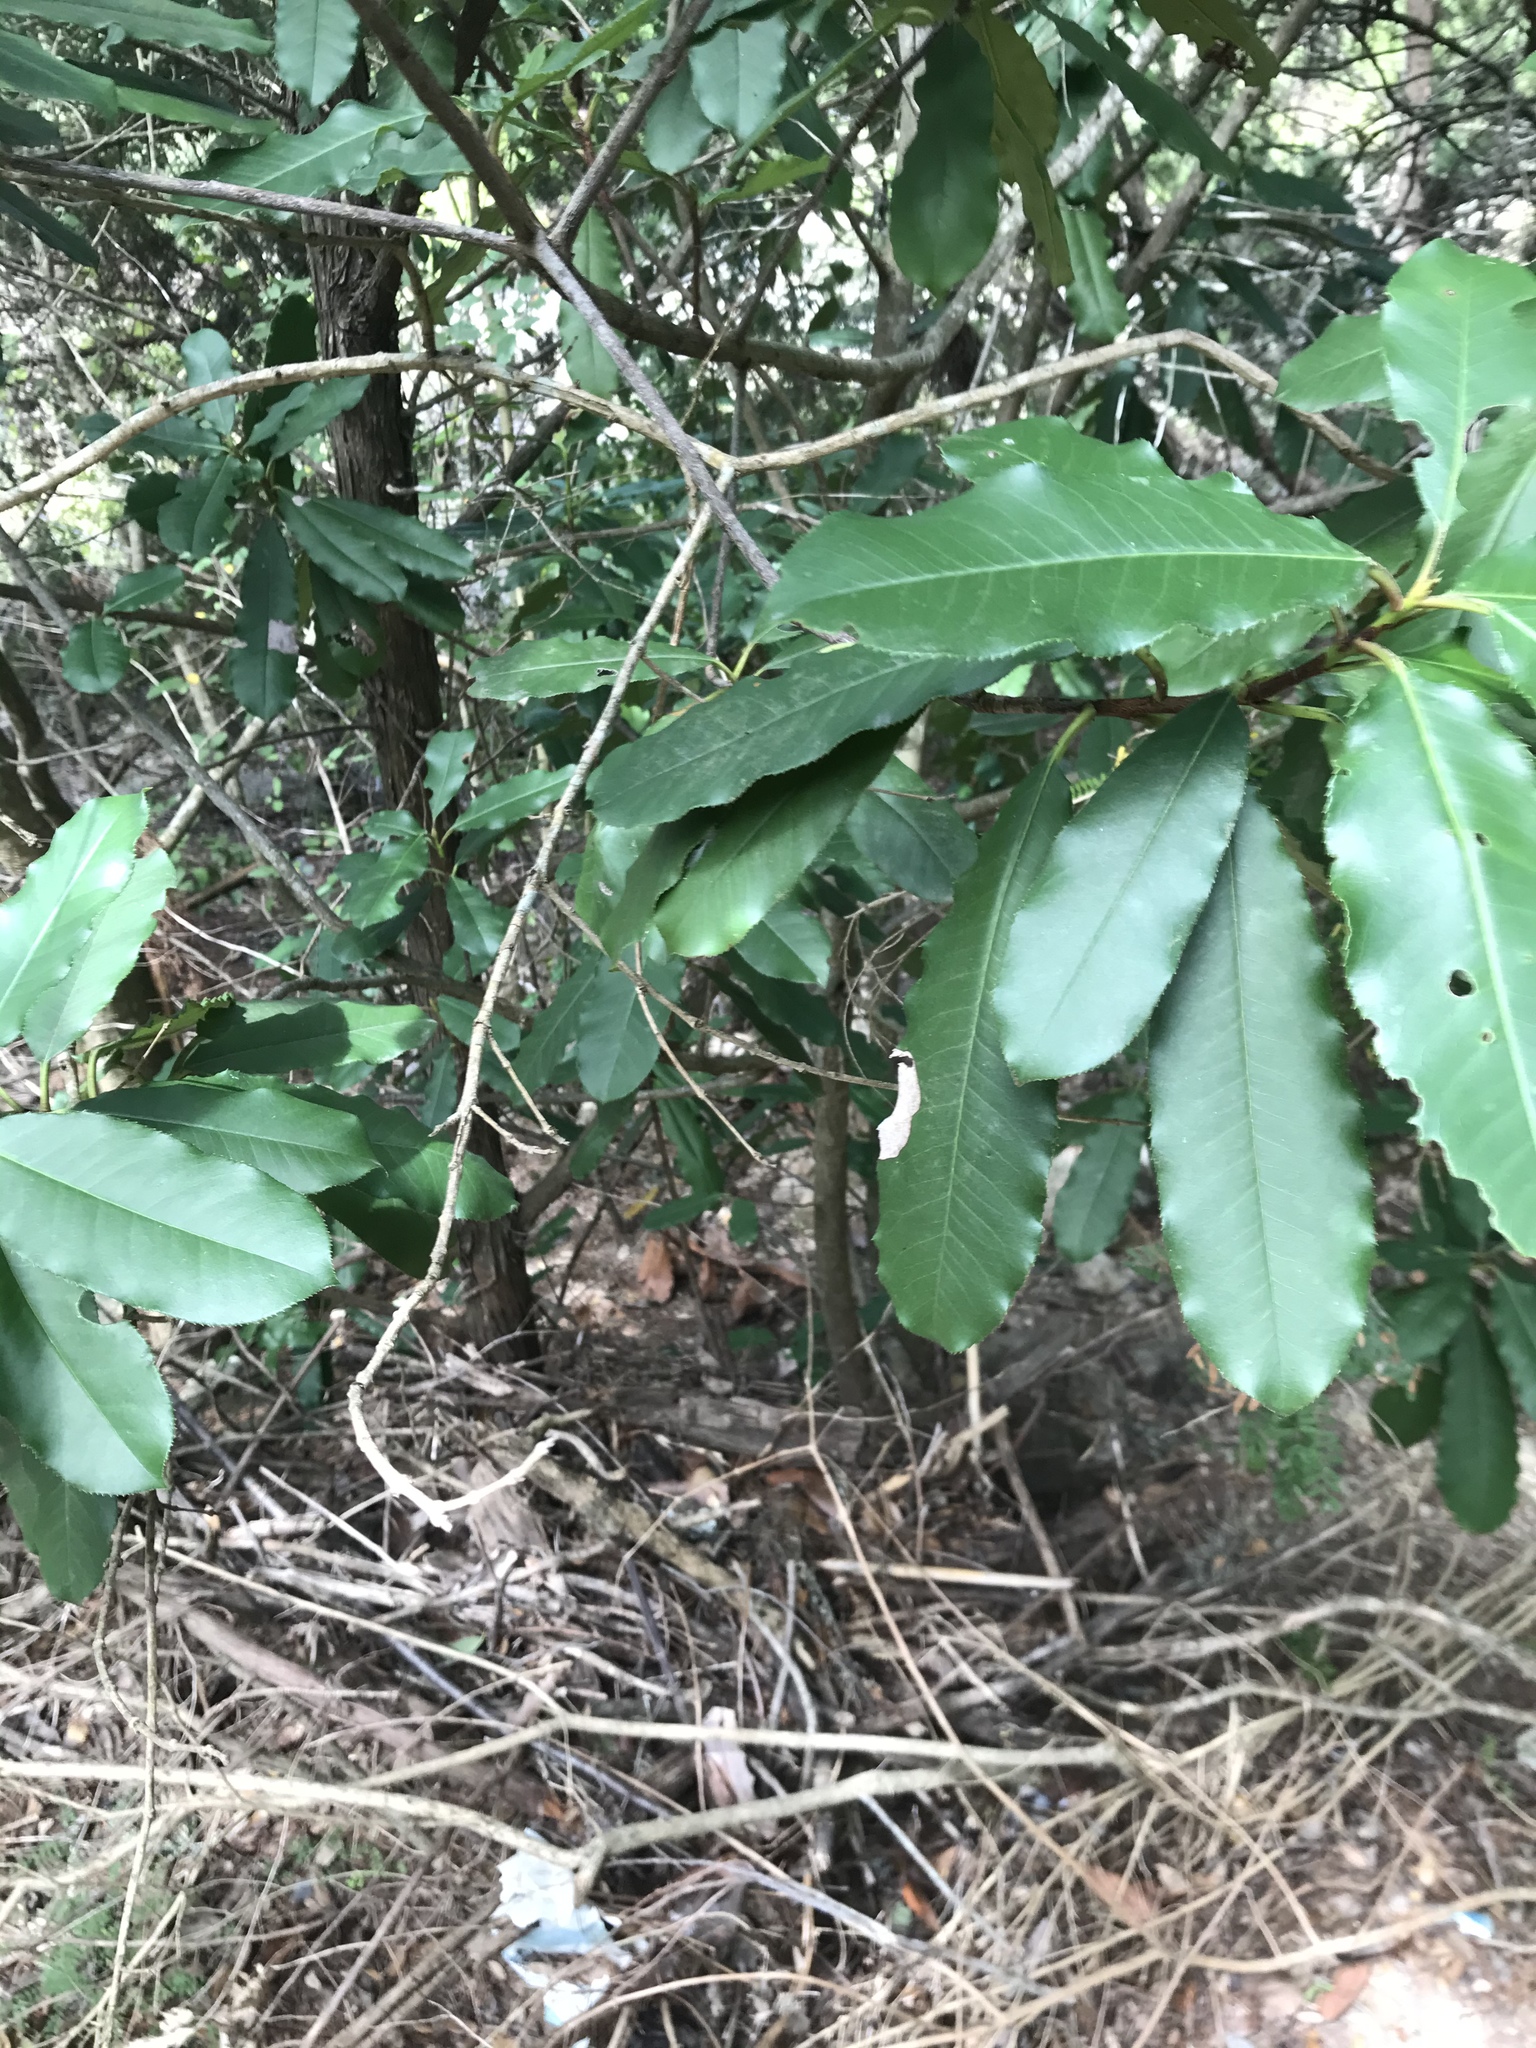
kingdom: Plantae
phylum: Tracheophyta
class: Magnoliopsida
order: Rosales
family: Rosaceae
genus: Photinia
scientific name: Photinia serratifolia
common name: Taiwanese photinia
